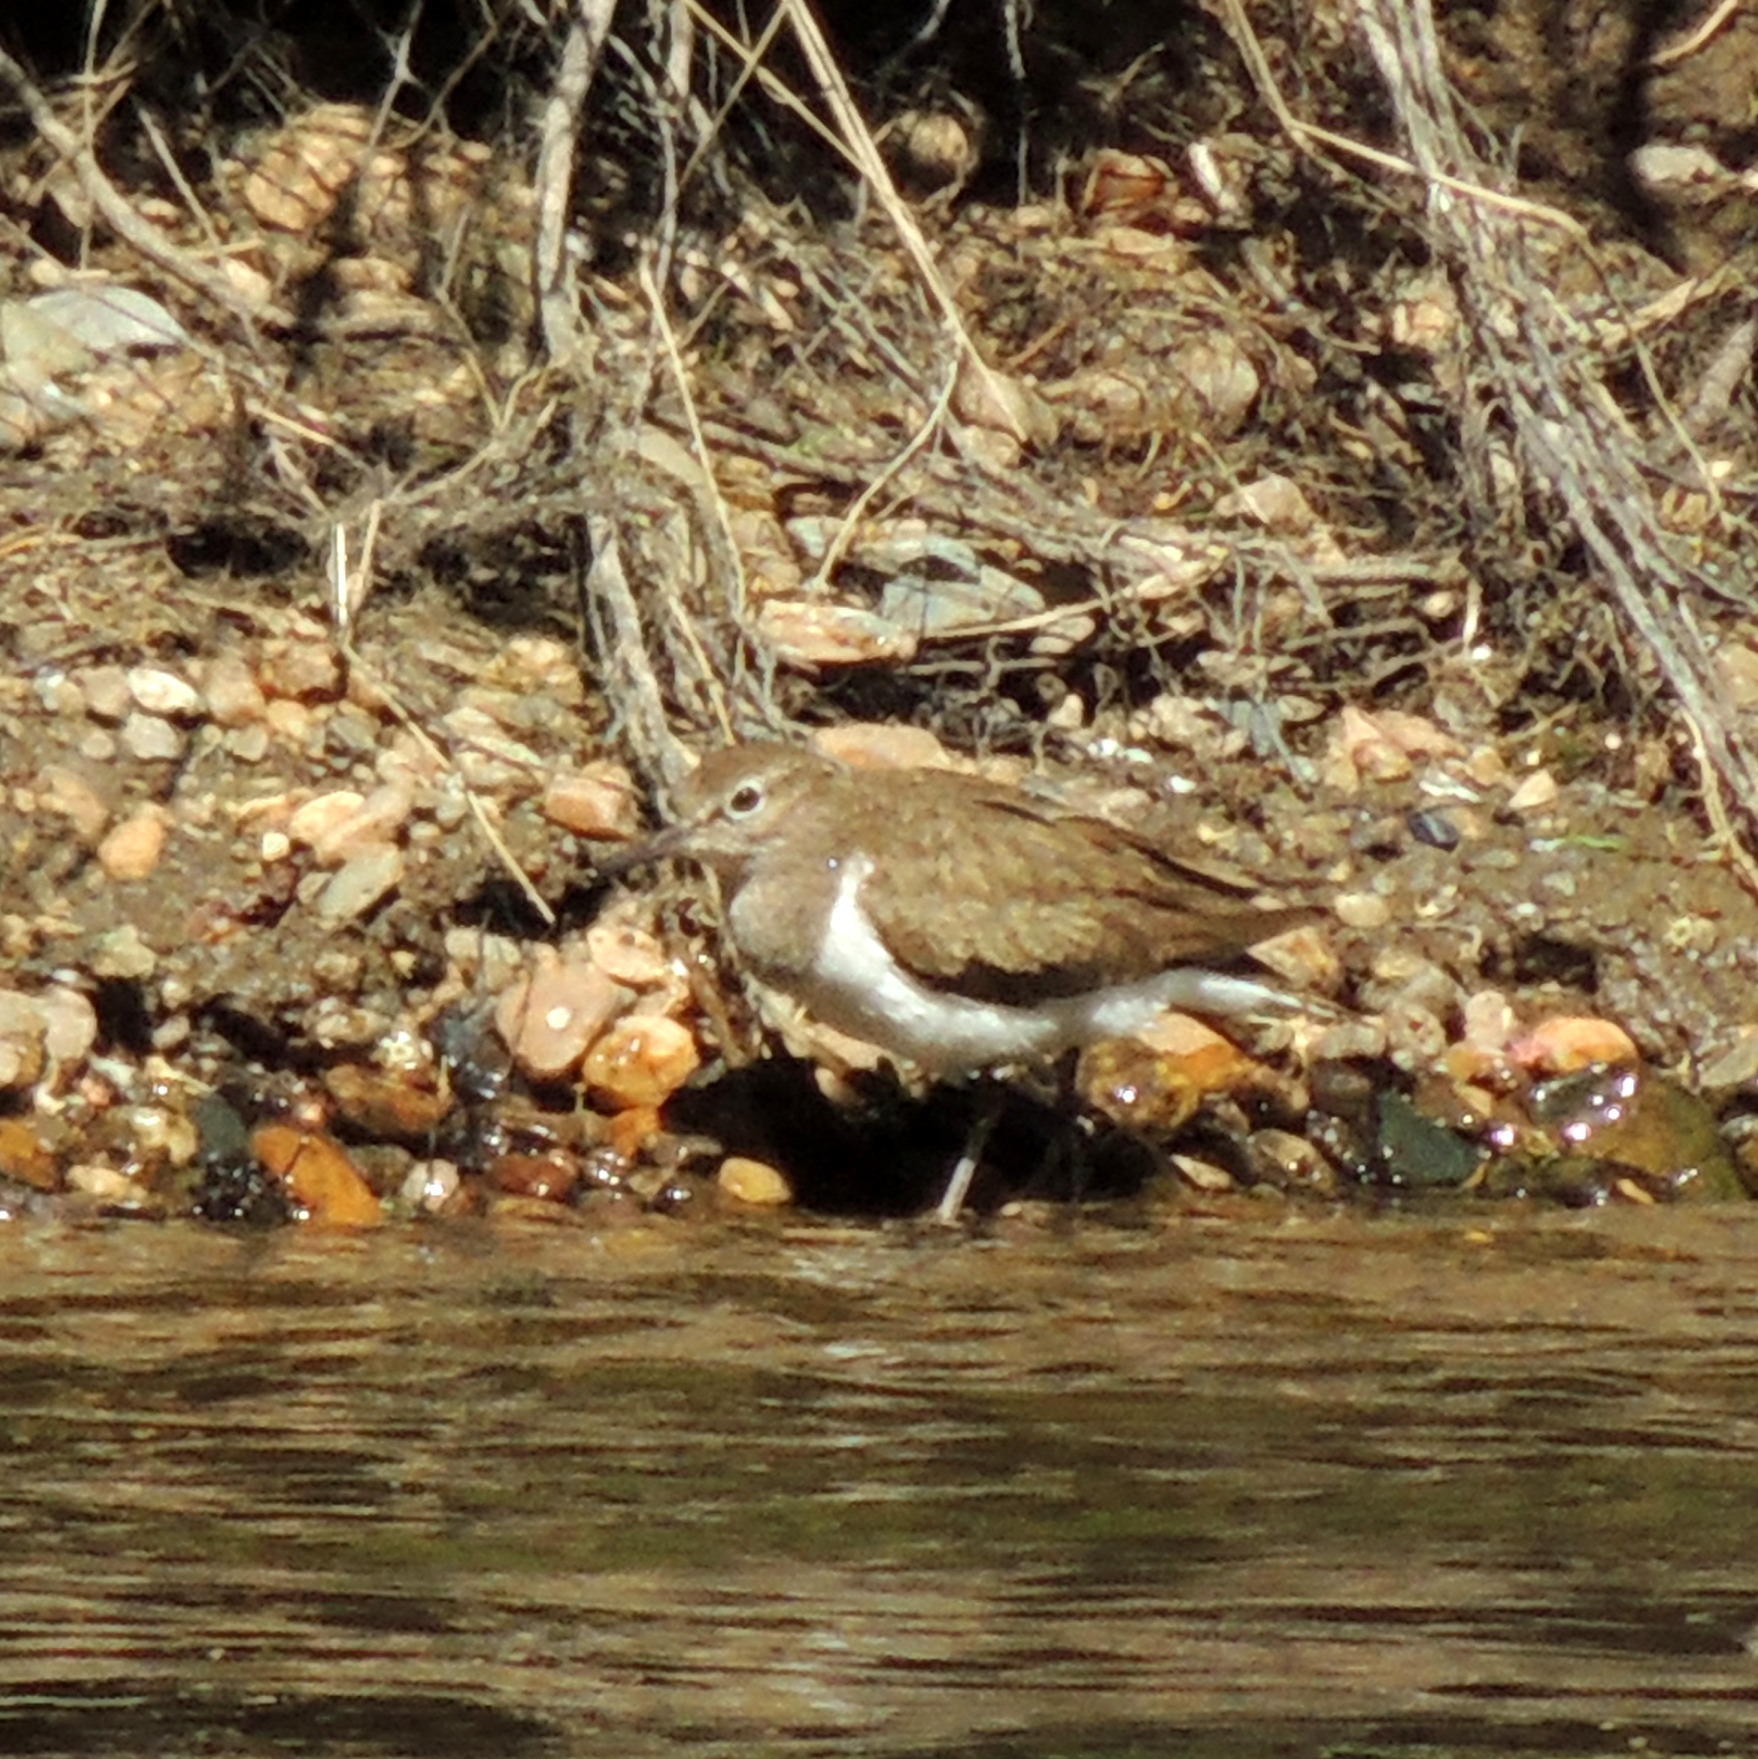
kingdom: Animalia
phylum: Chordata
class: Aves
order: Charadriiformes
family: Scolopacidae
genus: Actitis
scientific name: Actitis hypoleucos
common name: Common sandpiper
